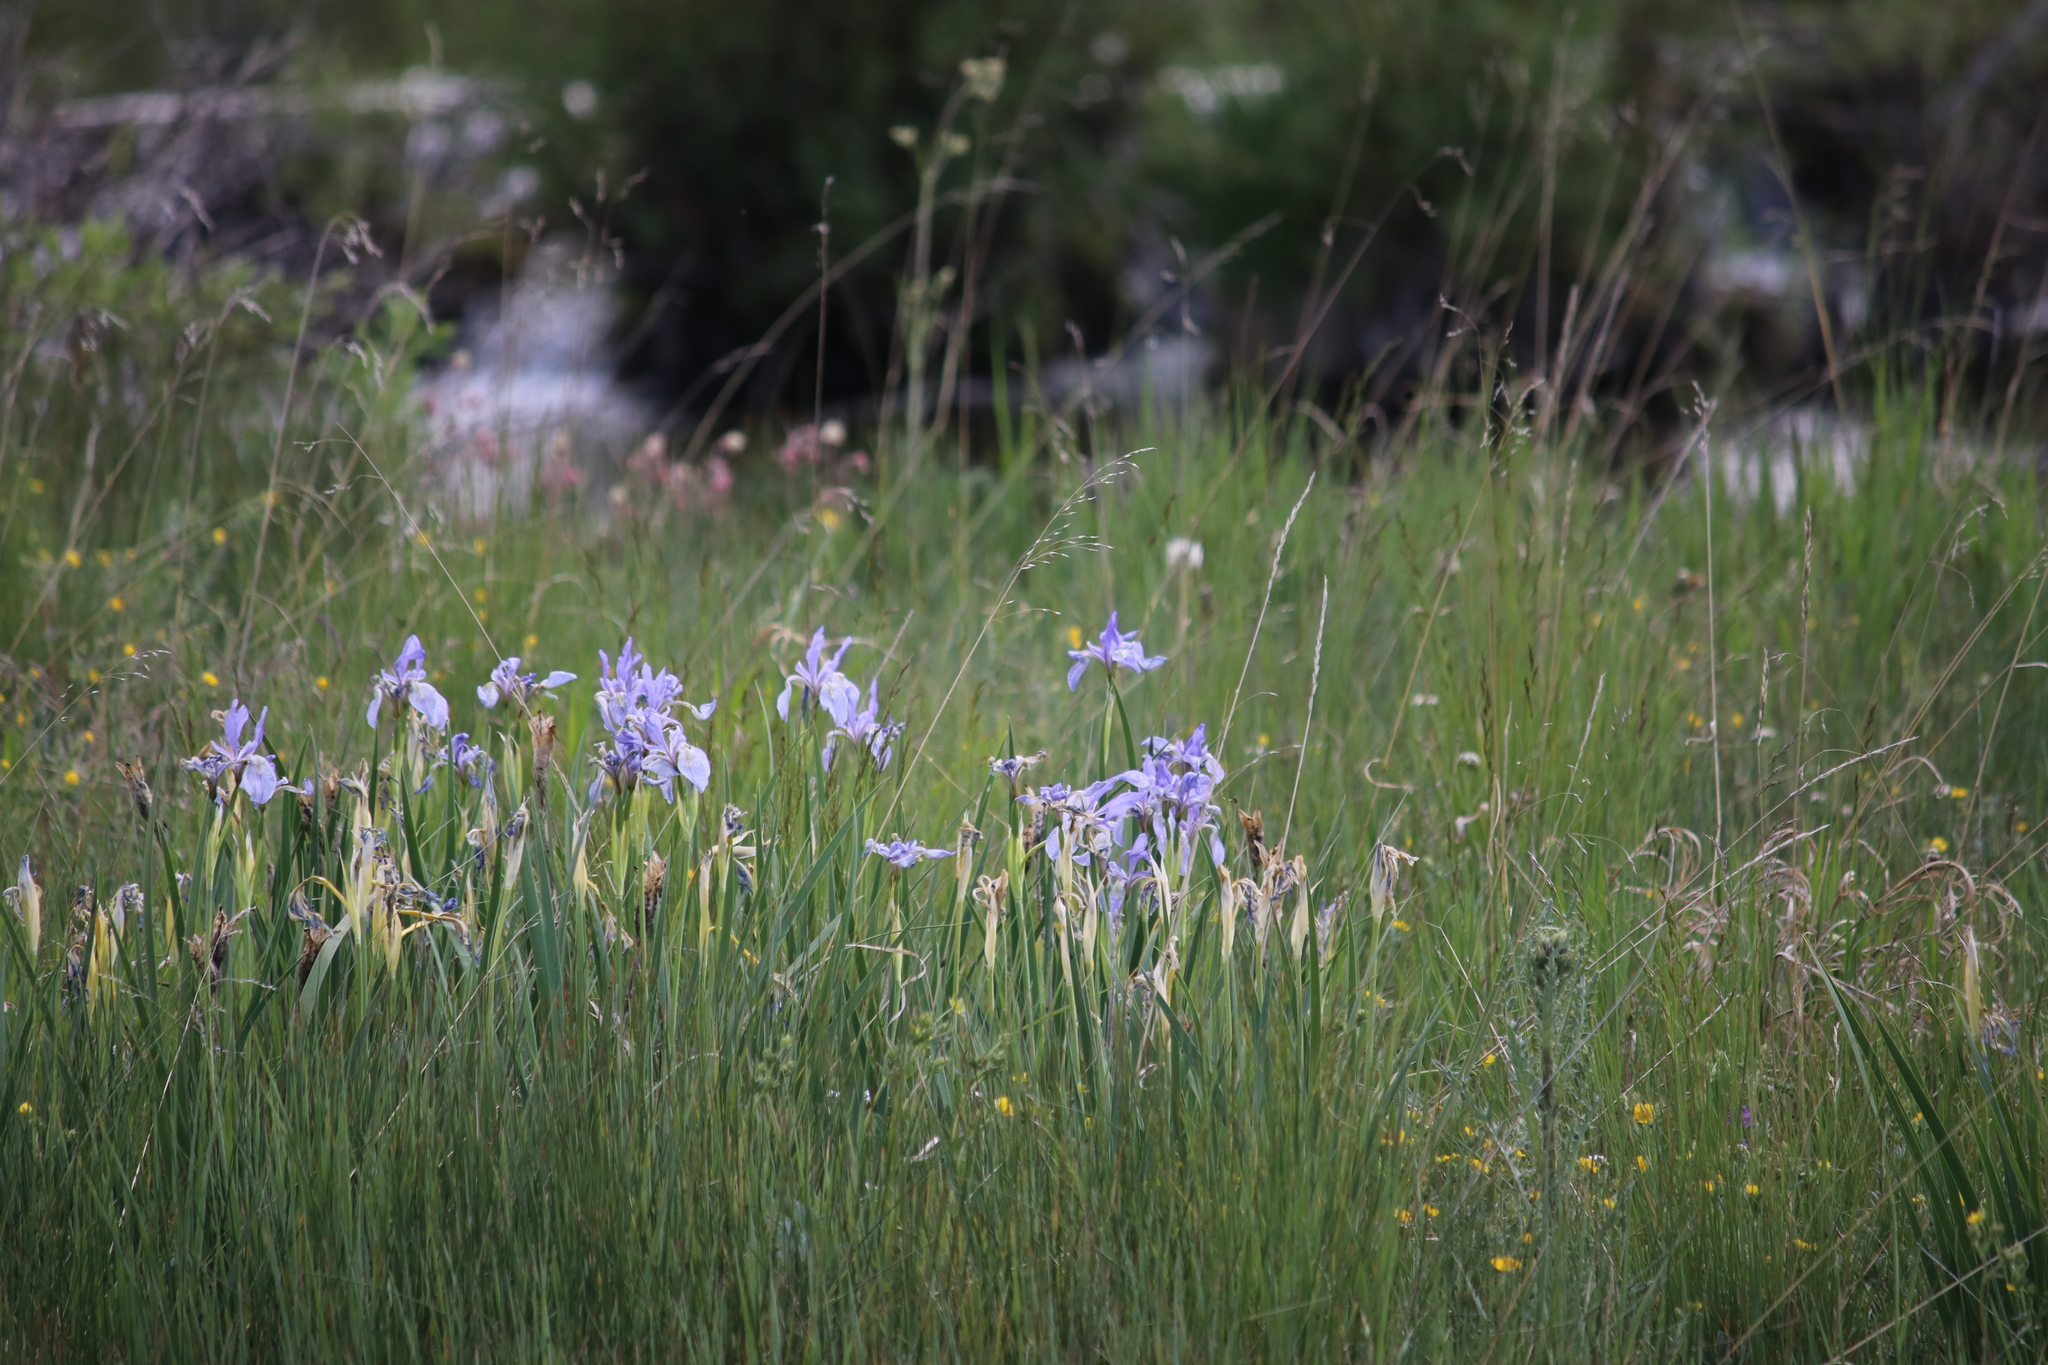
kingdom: Plantae
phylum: Tracheophyta
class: Liliopsida
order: Asparagales
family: Iridaceae
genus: Iris
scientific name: Iris missouriensis
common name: Rocky mountain iris
